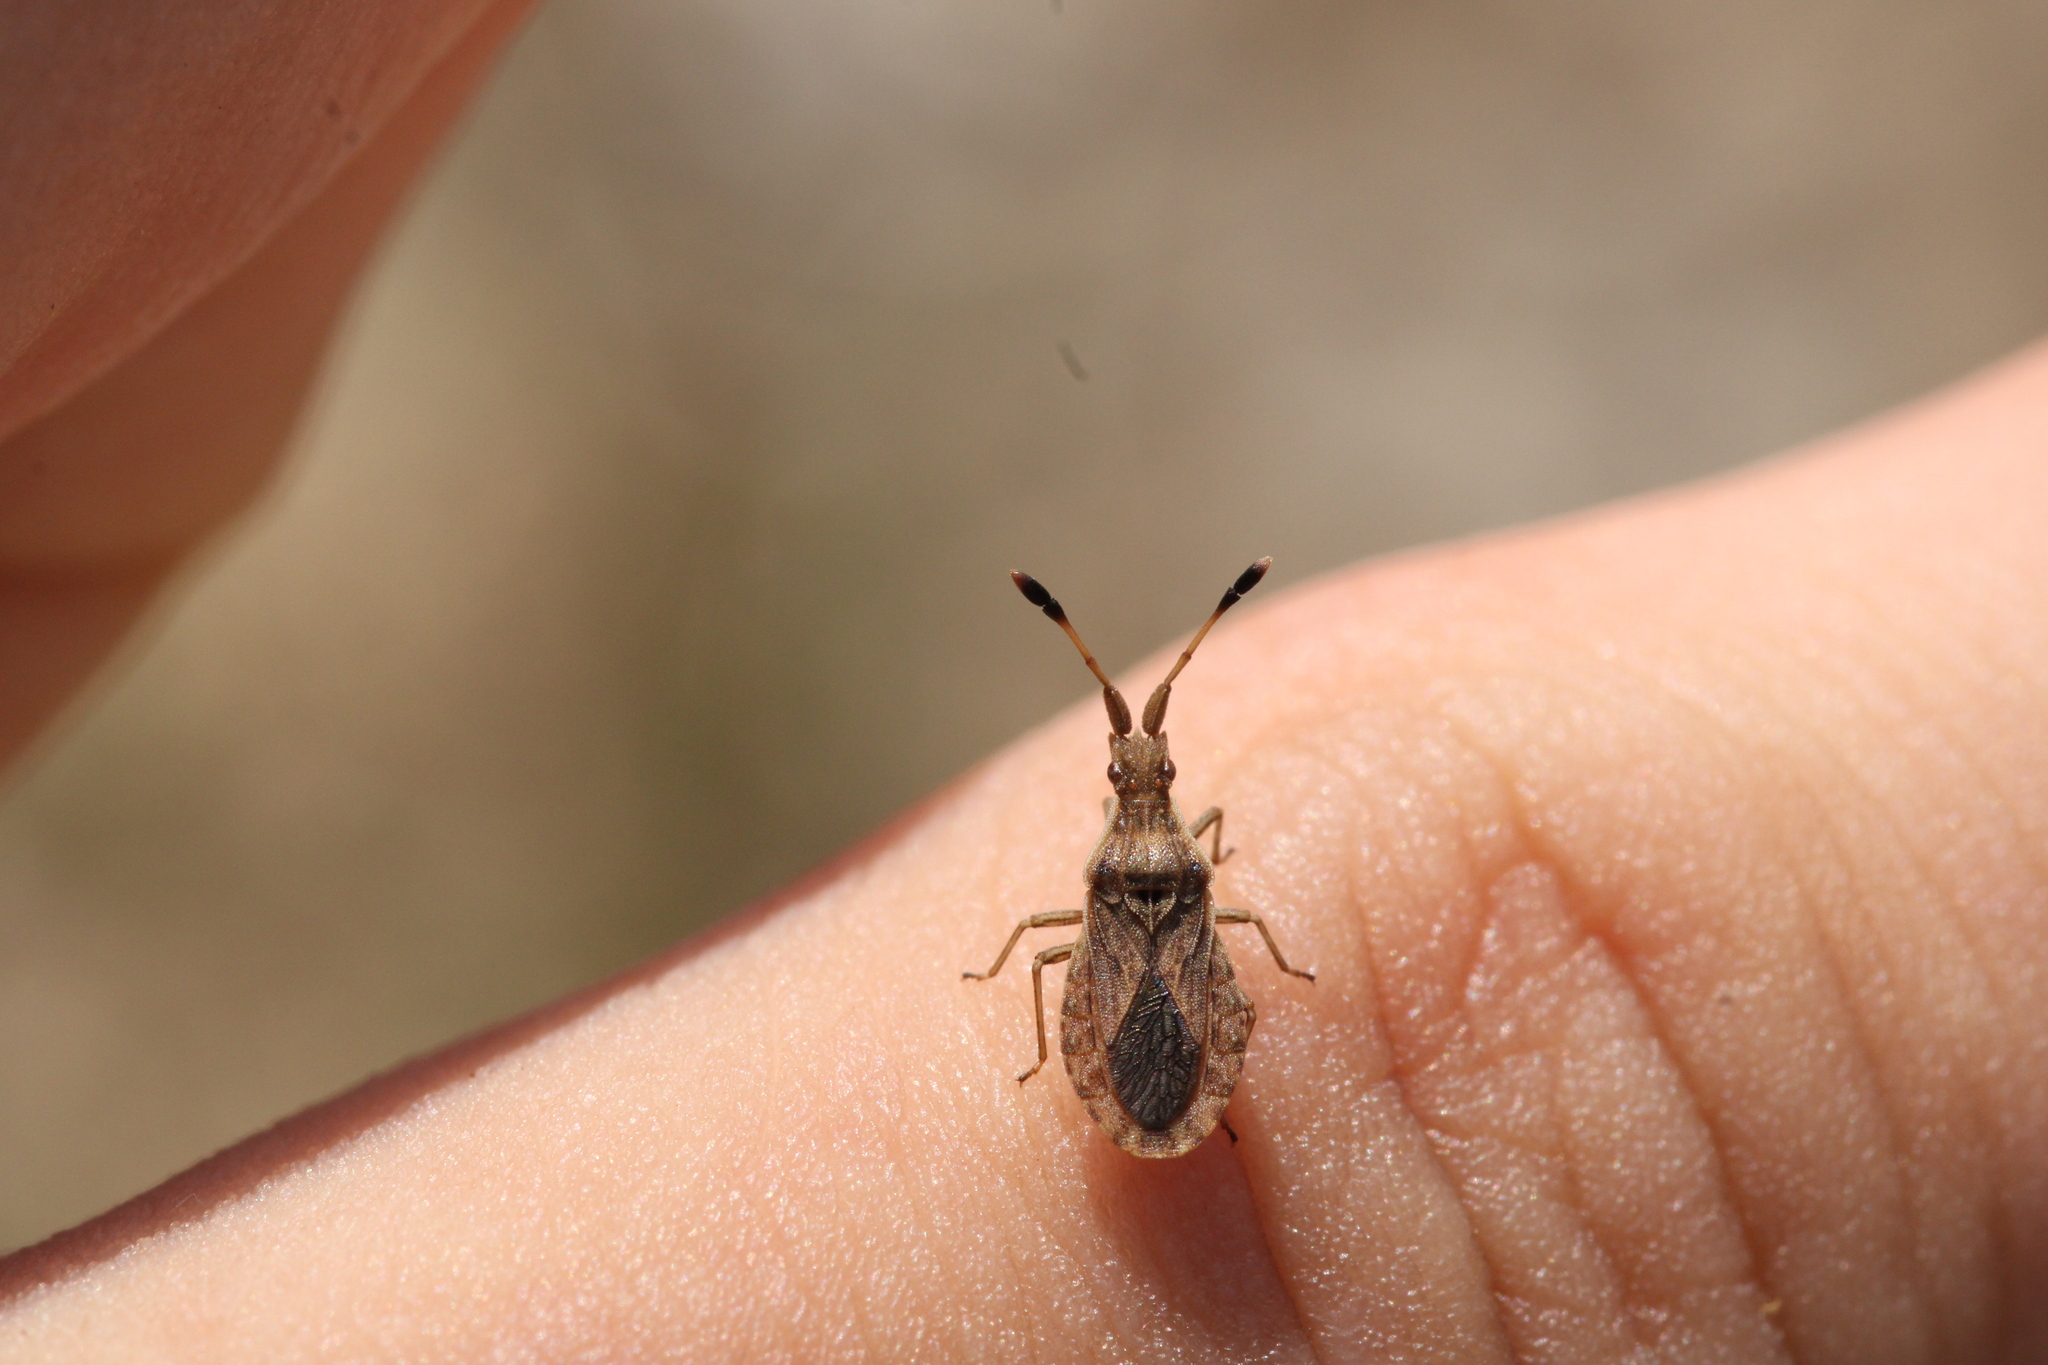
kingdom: Animalia
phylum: Arthropoda
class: Insecta
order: Hemiptera
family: Coreidae
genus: Spathocera
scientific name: Spathocera lobata
